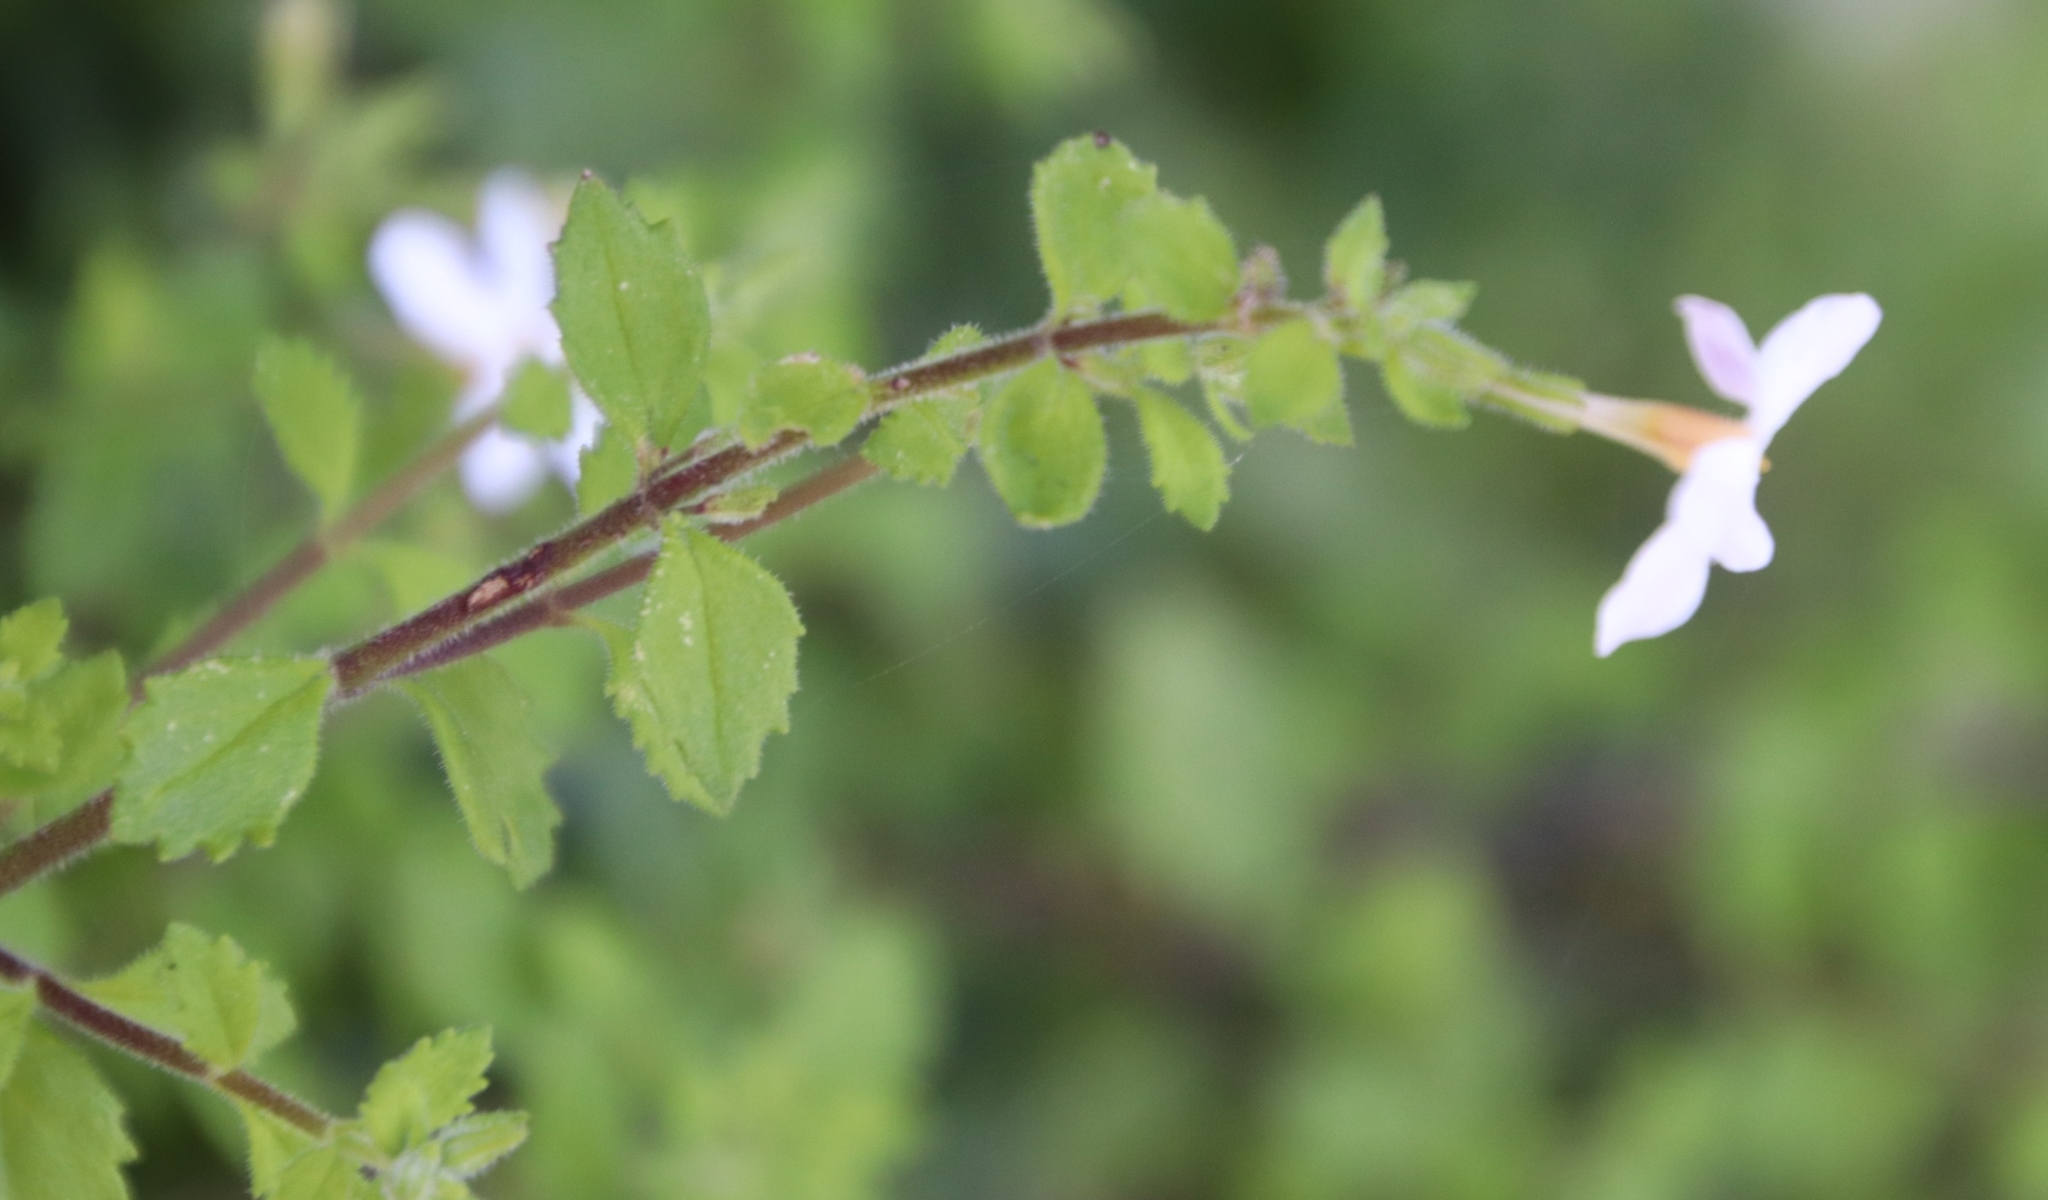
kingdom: Plantae
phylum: Tracheophyta
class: Magnoliopsida
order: Lamiales
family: Scrophulariaceae
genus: Chaenostoma
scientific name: Chaenostoma hispidum
